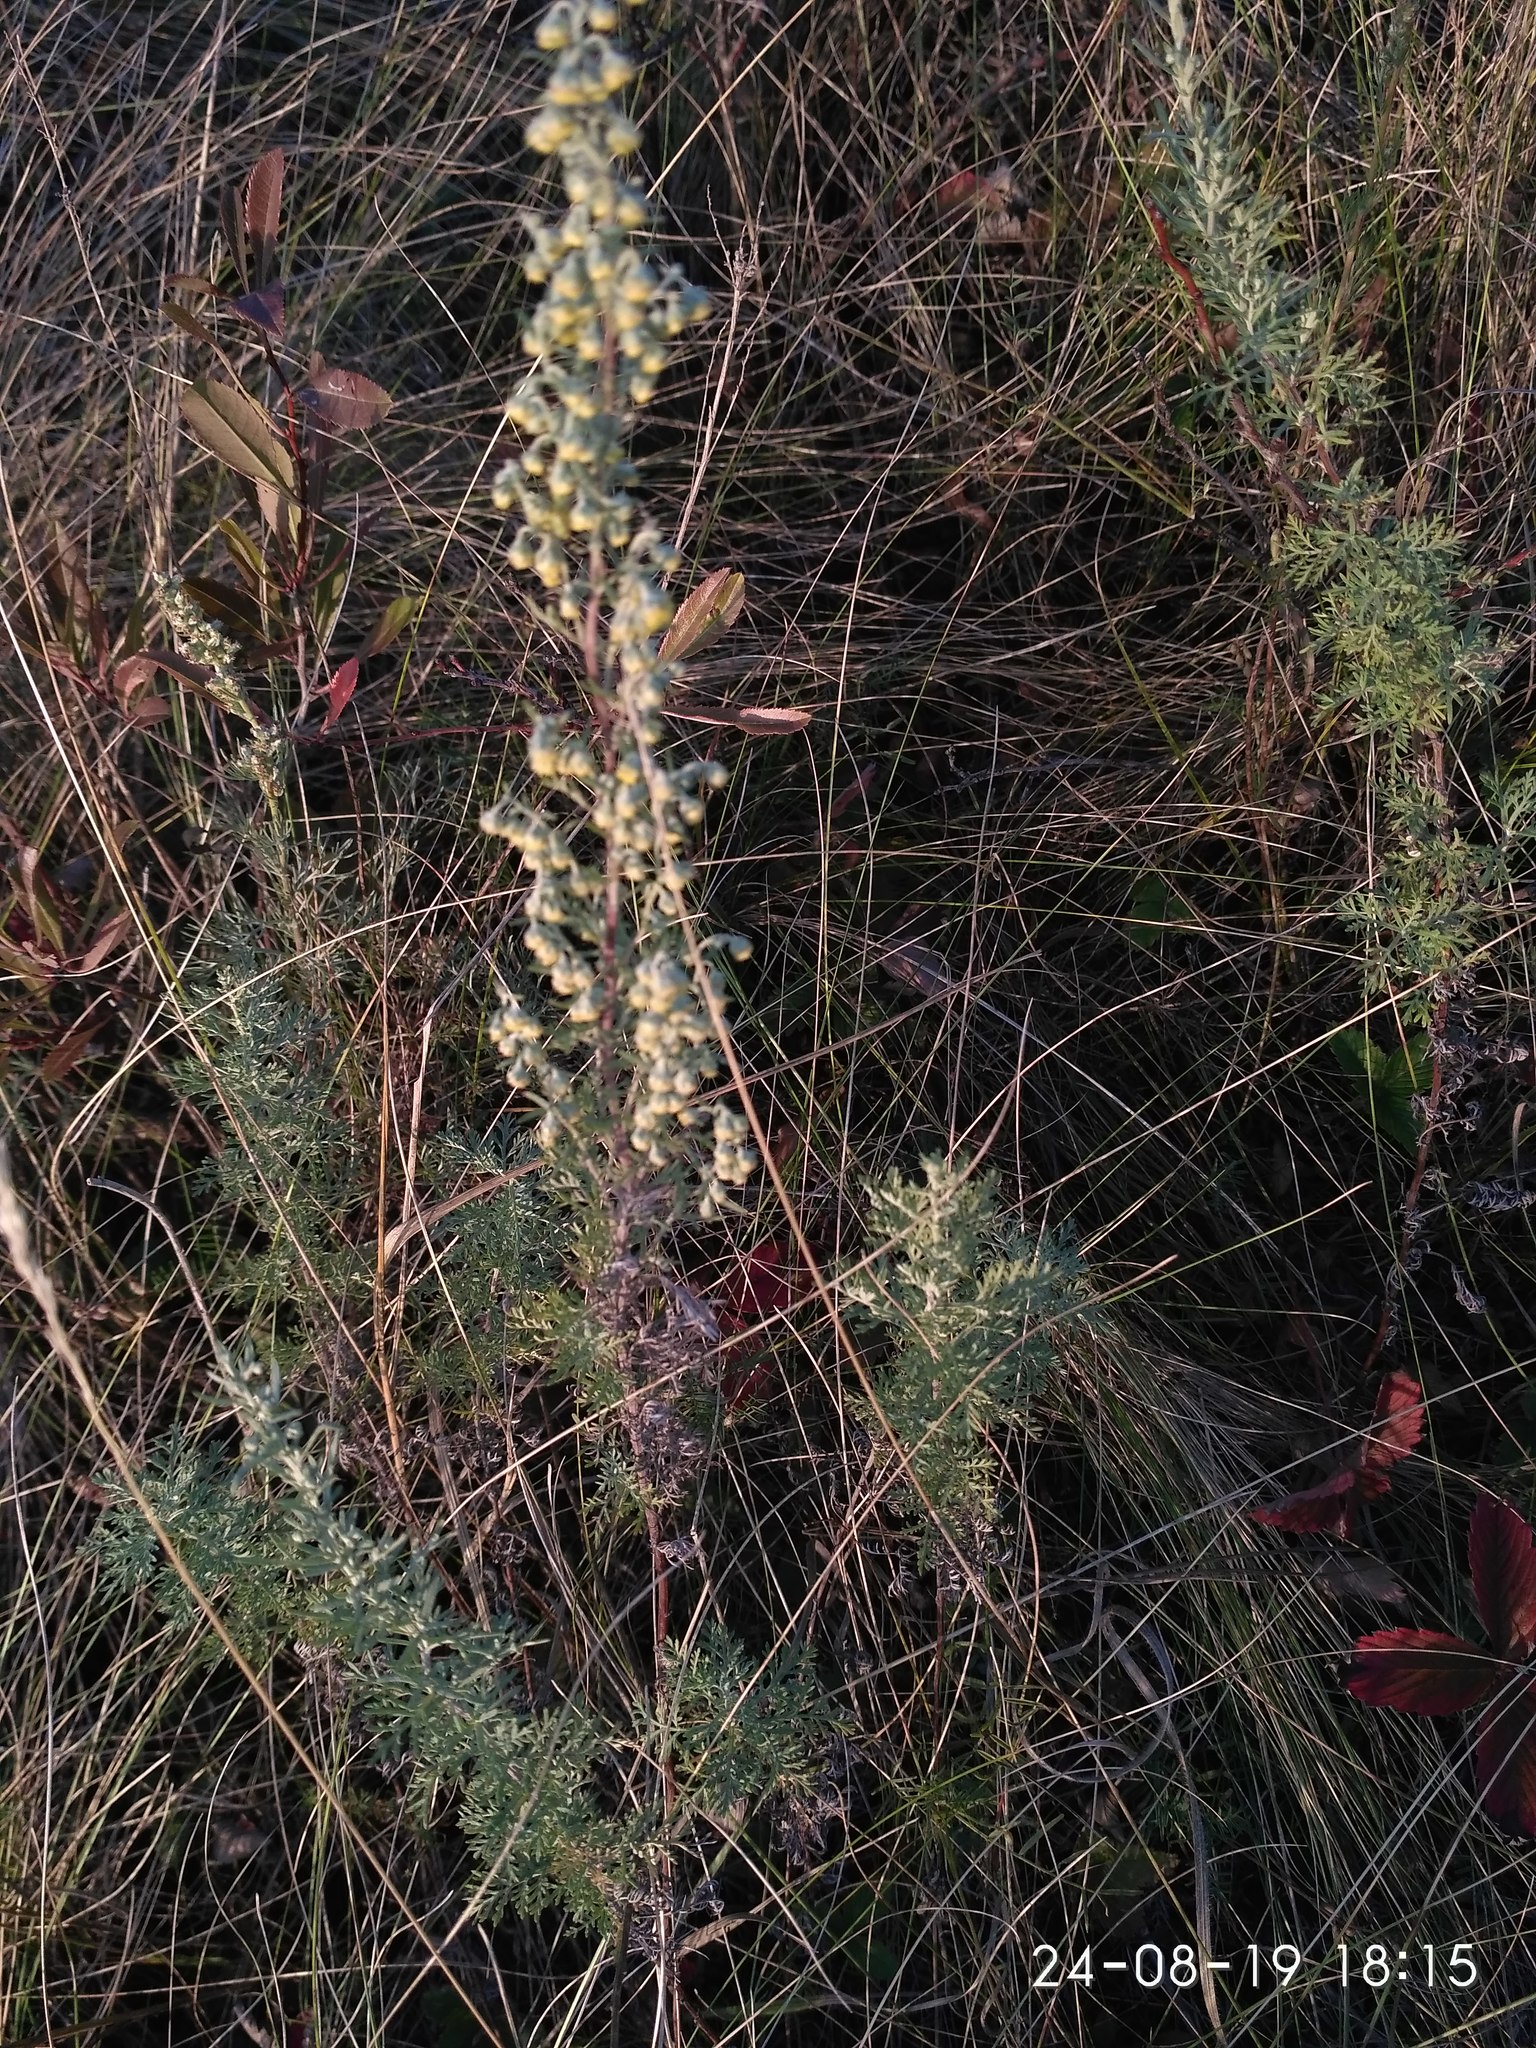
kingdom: Plantae
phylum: Tracheophyta
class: Magnoliopsida
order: Asterales
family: Asteraceae
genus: Artemisia
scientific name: Artemisia pontica
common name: Roman wormwood
